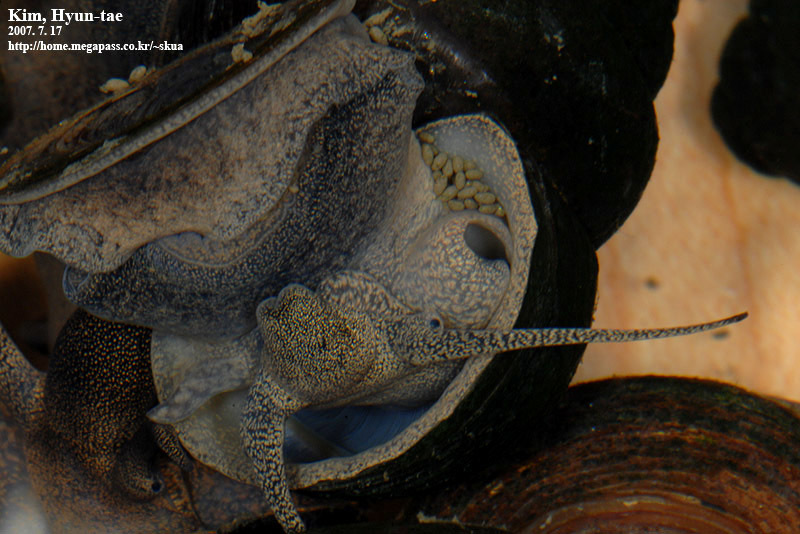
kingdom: Animalia
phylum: Mollusca
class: Gastropoda
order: Architaenioglossa
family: Viviparidae
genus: Cipangopaludina
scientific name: Cipangopaludina chinensis
